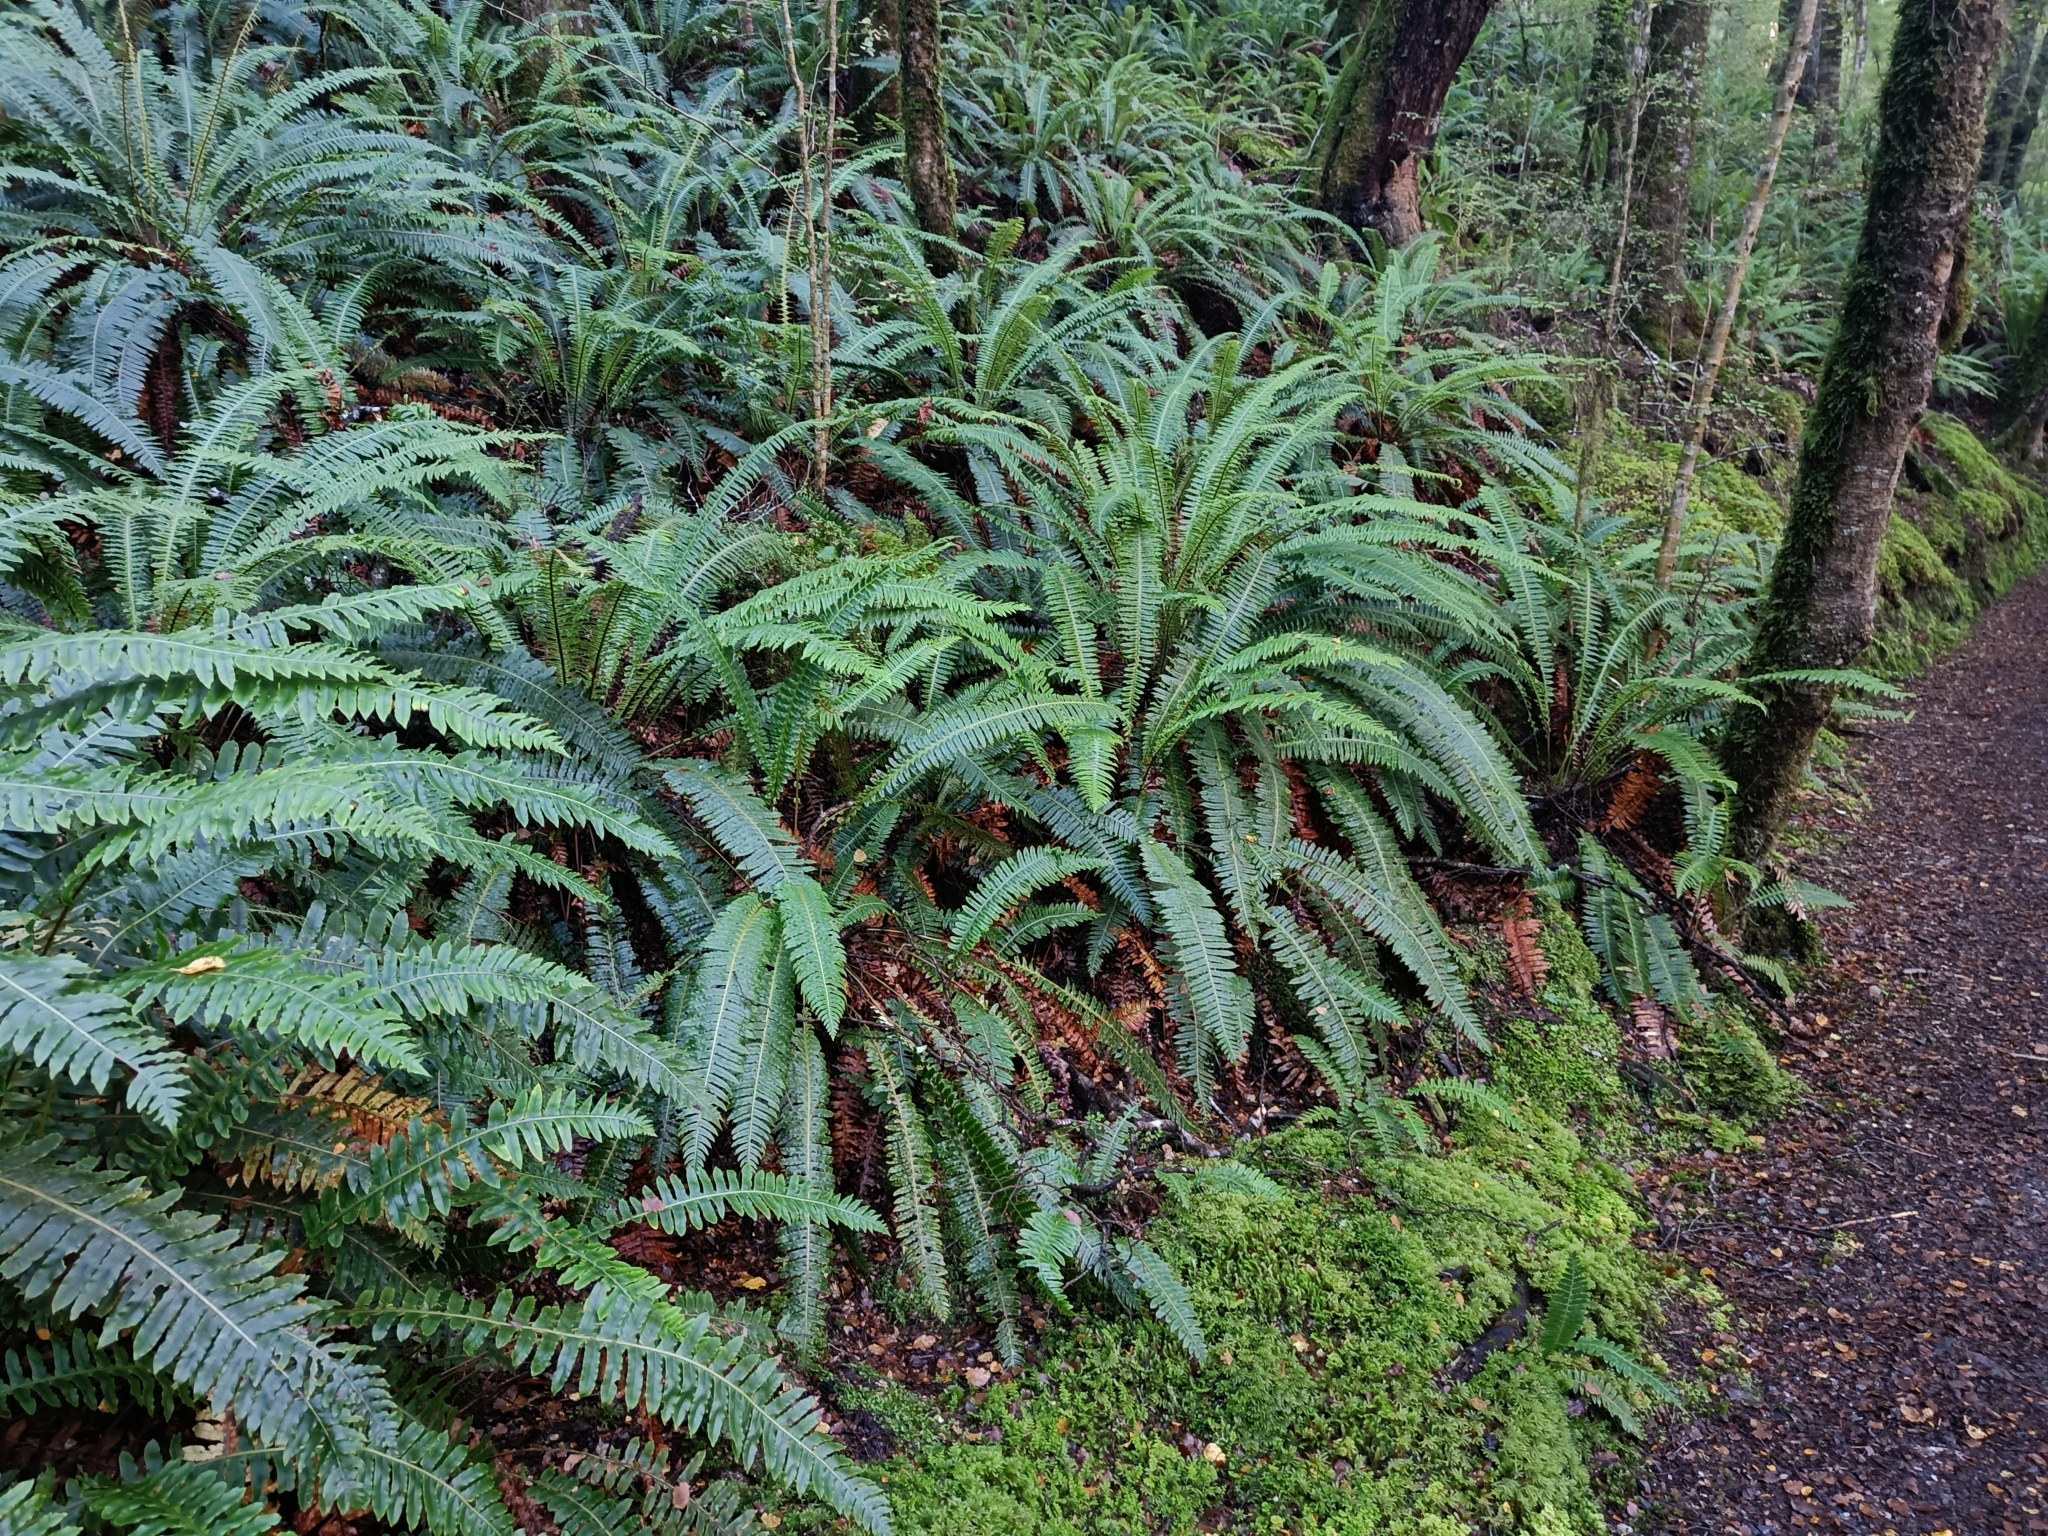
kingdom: Plantae
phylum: Tracheophyta
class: Polypodiopsida
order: Polypodiales
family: Blechnaceae
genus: Lomaria
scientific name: Lomaria discolor
